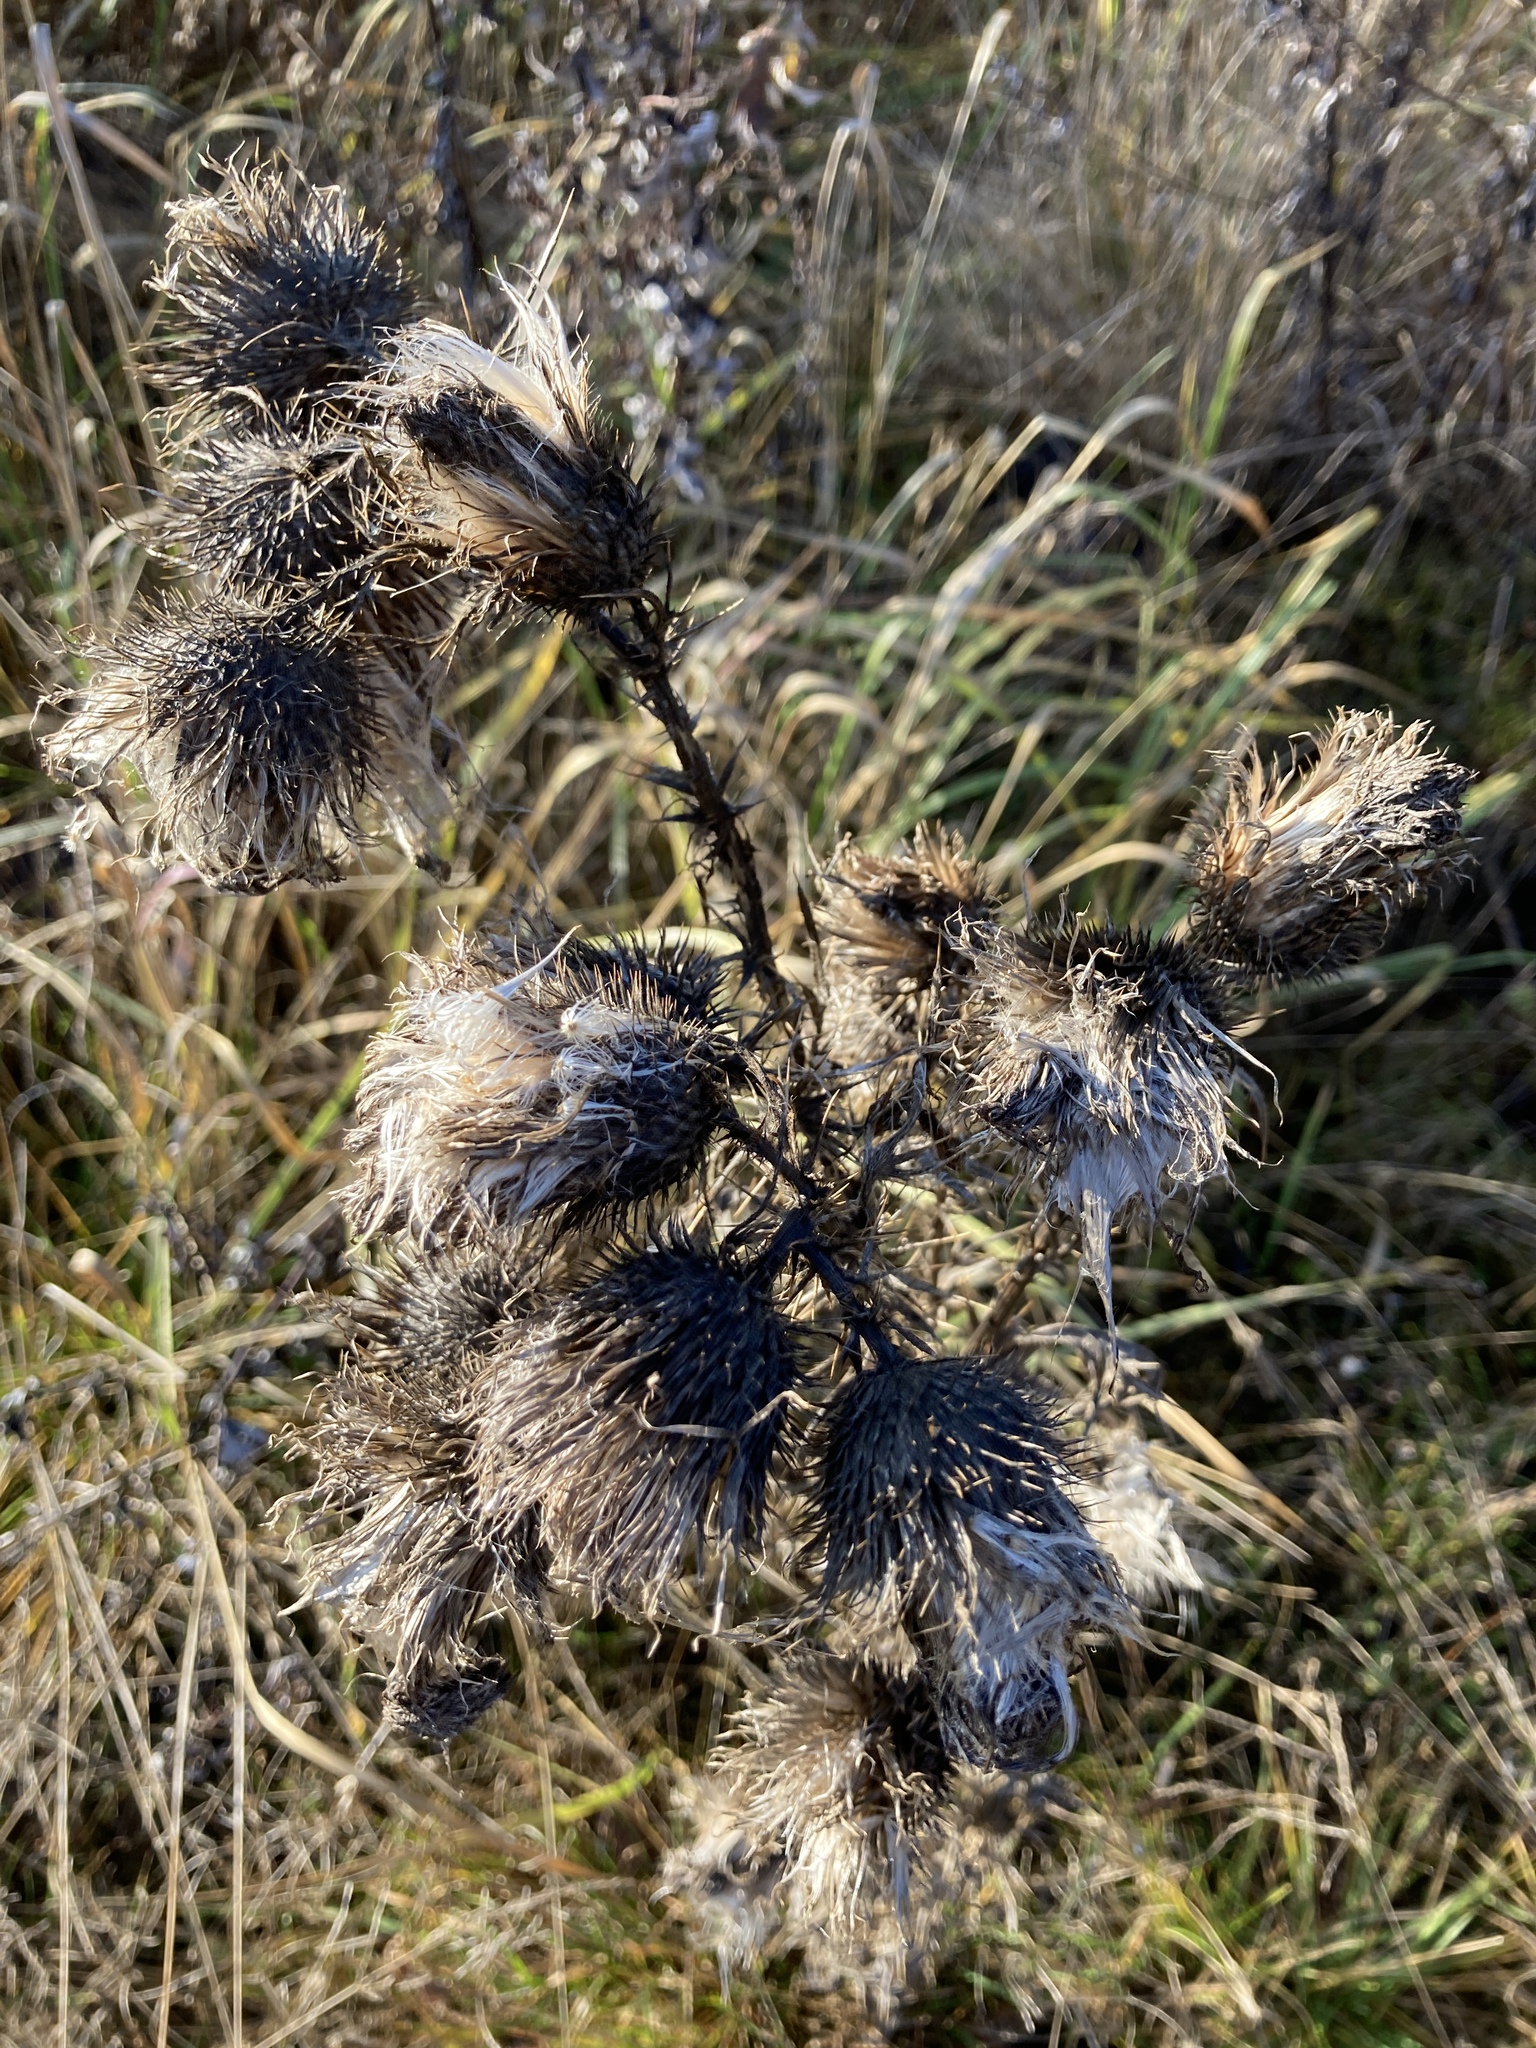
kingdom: Plantae
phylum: Tracheophyta
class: Magnoliopsida
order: Asterales
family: Asteraceae
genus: Cirsium
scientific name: Cirsium vulgare
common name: Bull thistle
